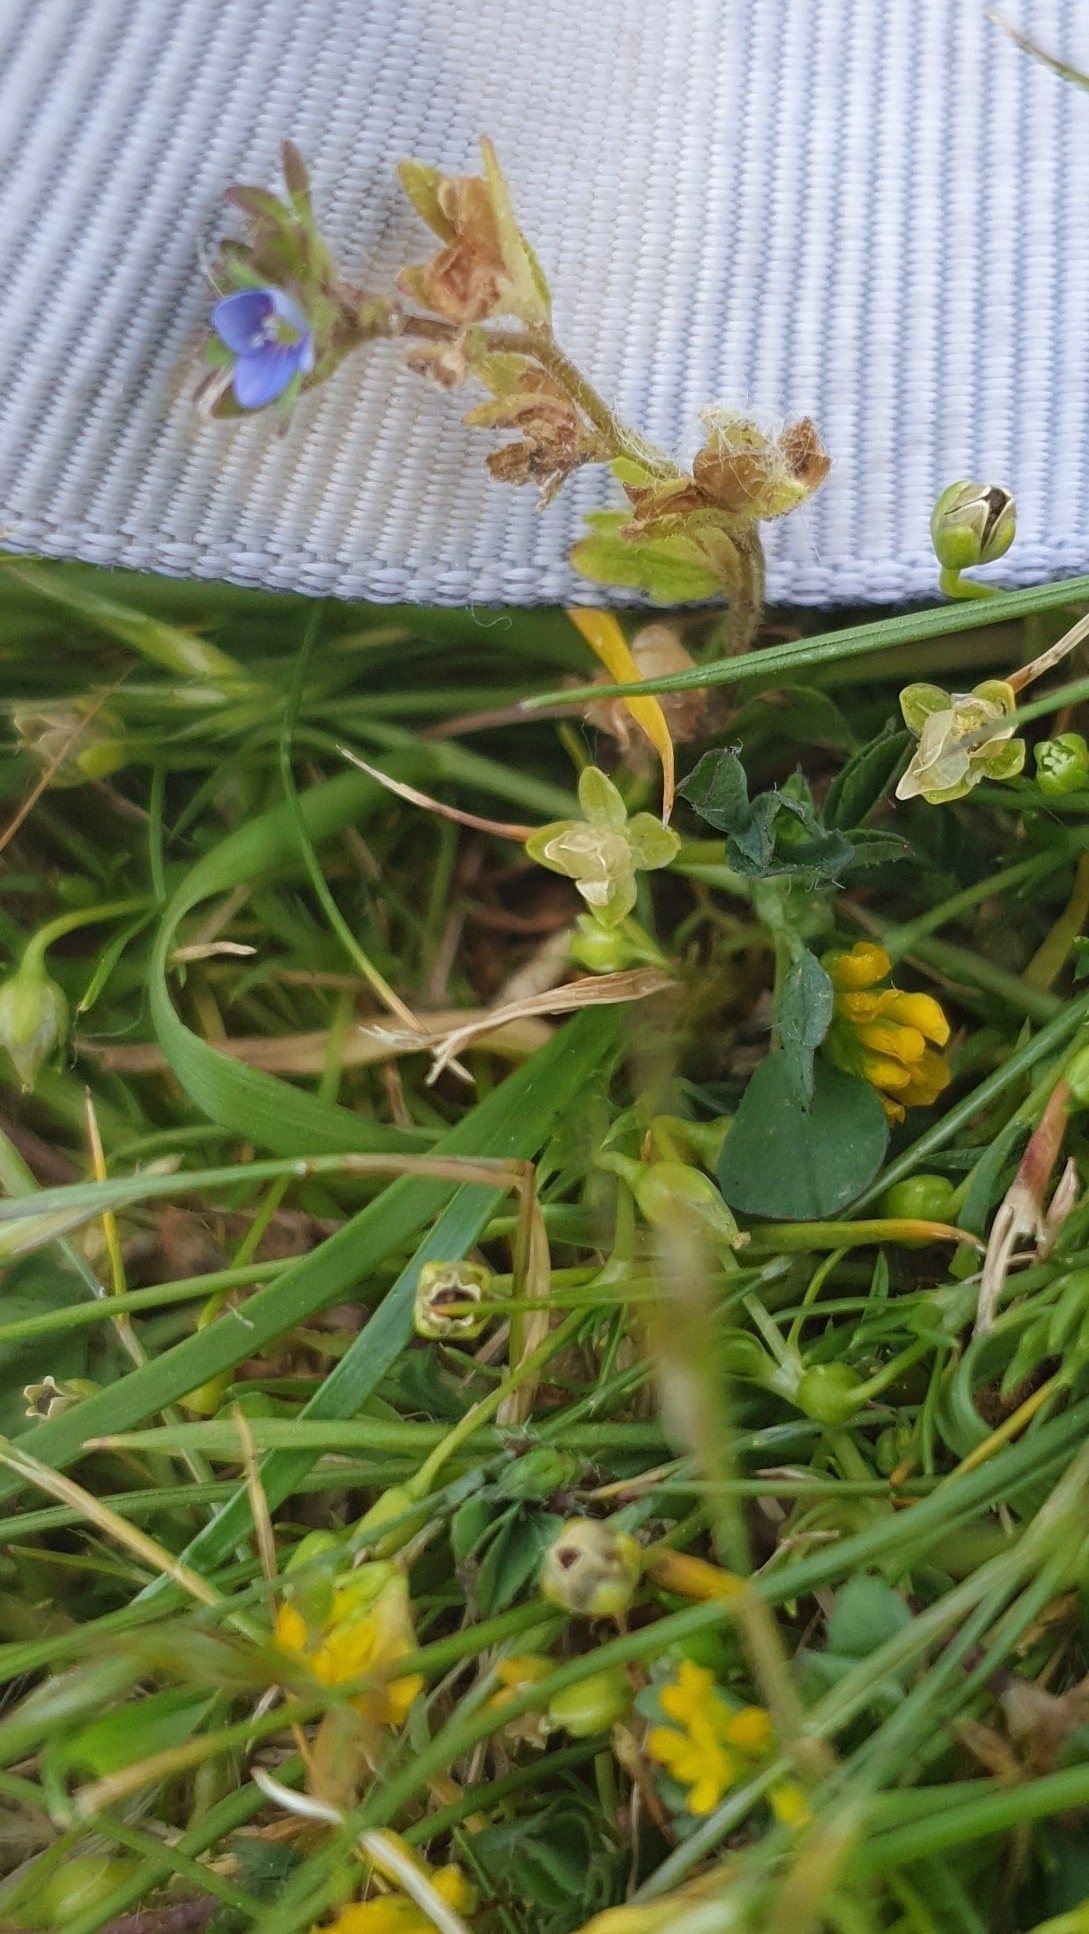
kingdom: Plantae
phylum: Tracheophyta
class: Magnoliopsida
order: Lamiales
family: Plantaginaceae
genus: Veronica
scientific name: Veronica arvensis
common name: Corn speedwell
